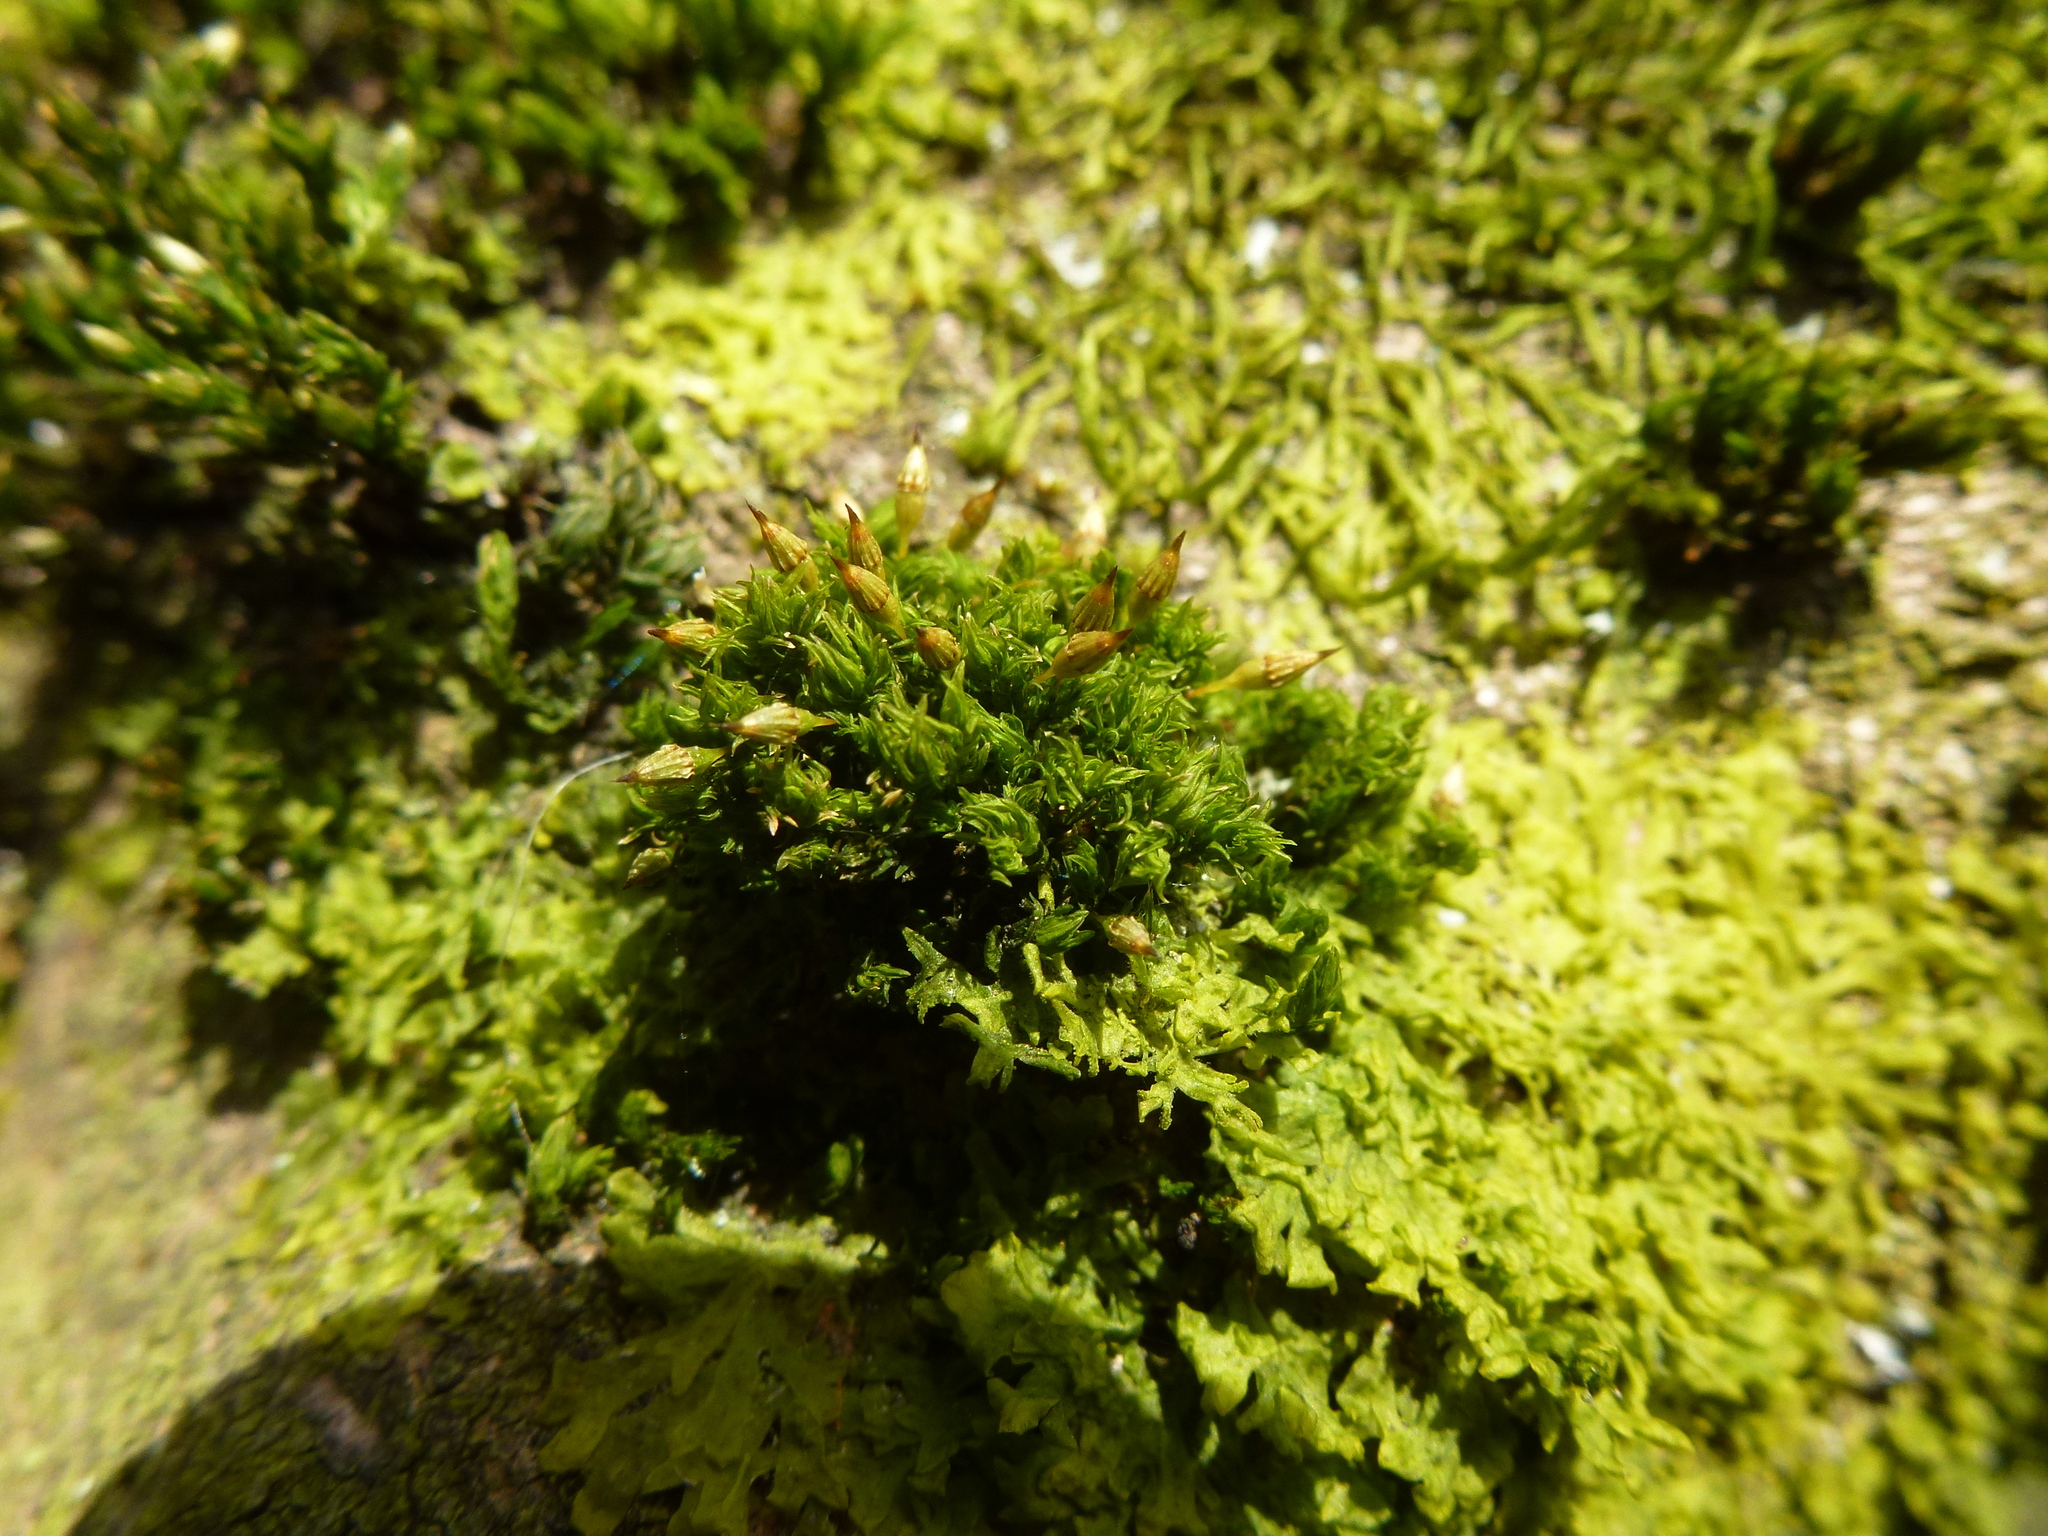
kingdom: Plantae
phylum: Bryophyta
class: Bryopsida
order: Orthotrichales
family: Orthotrichaceae
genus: Orthotrichum
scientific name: Orthotrichum pulchellum
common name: Elegant bristle-moss
